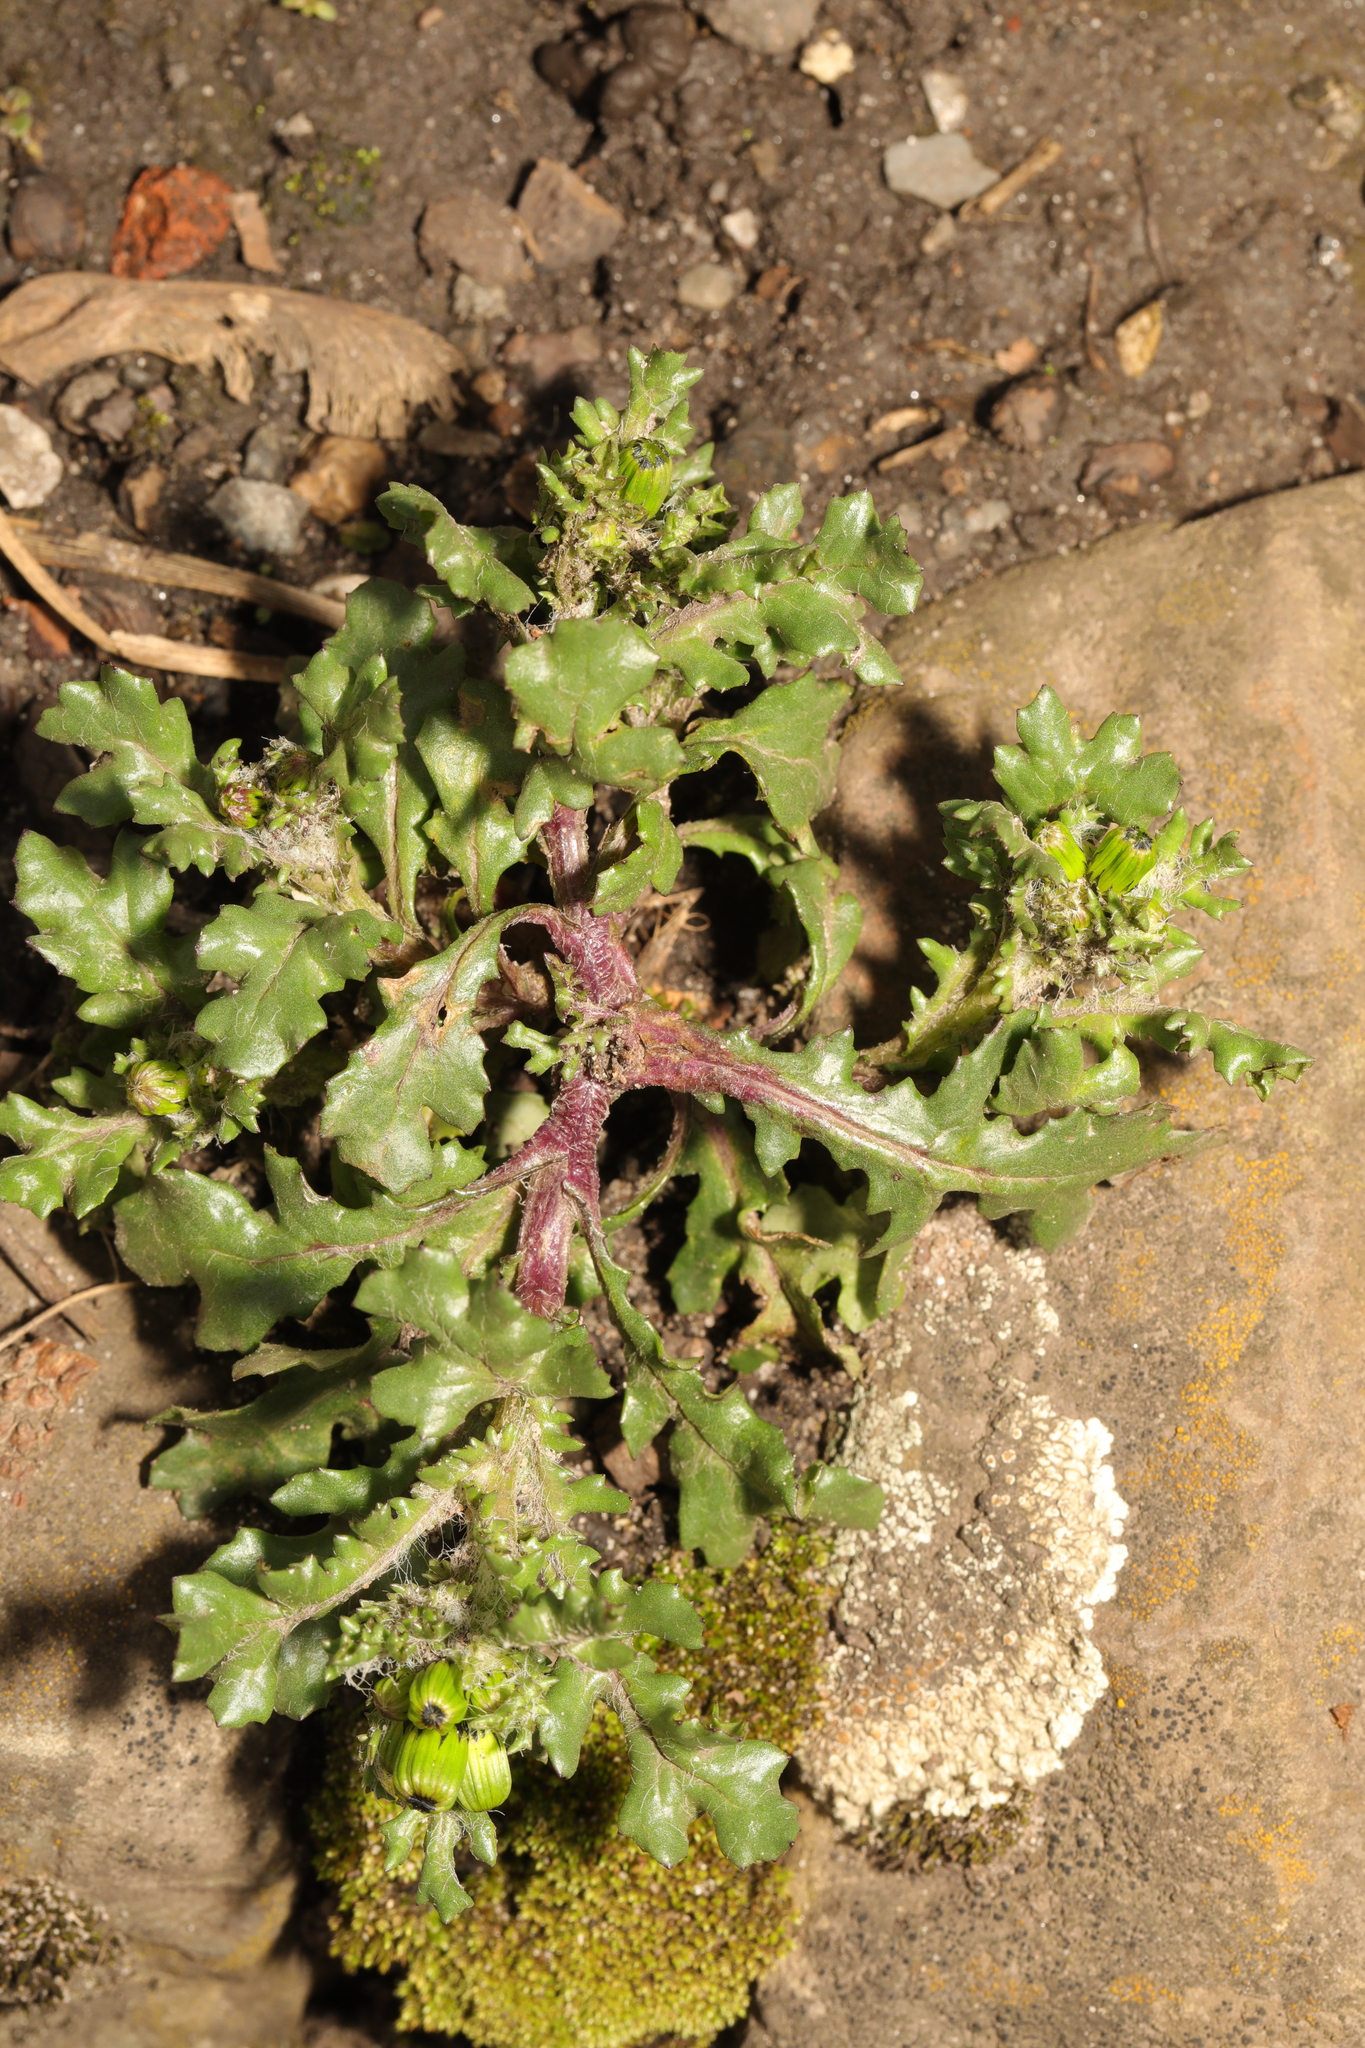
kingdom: Plantae
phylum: Tracheophyta
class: Magnoliopsida
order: Asterales
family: Asteraceae
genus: Senecio
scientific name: Senecio vulgaris
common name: Old-man-in-the-spring
